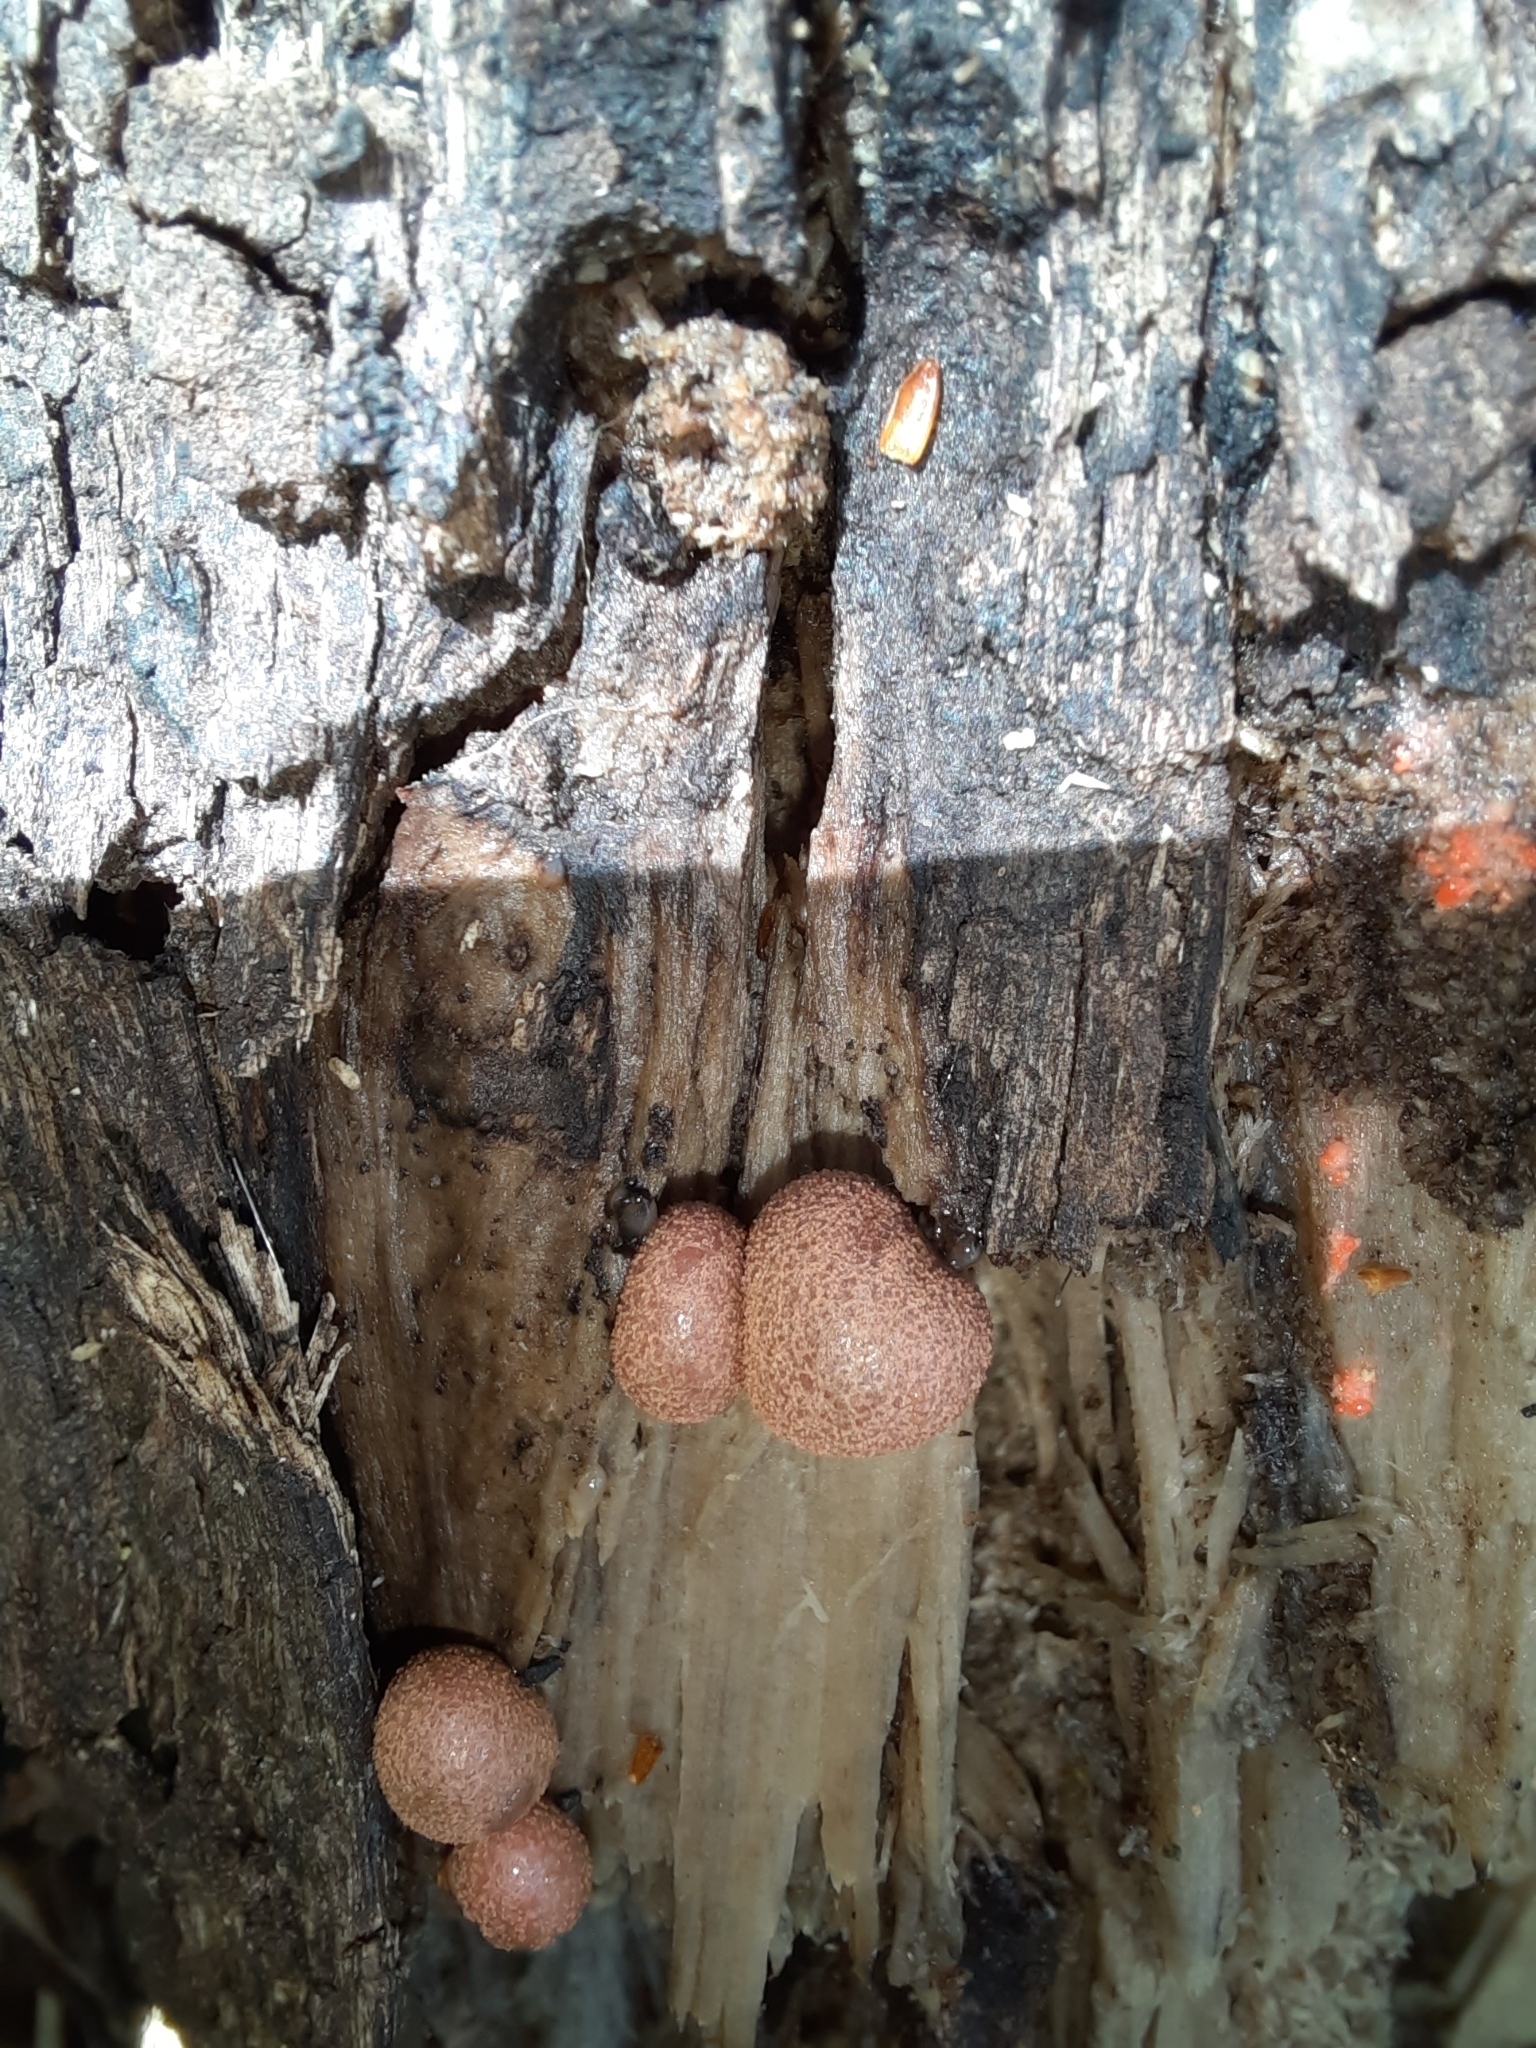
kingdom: Protozoa
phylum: Mycetozoa
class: Myxomycetes
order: Cribrariales
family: Tubiferaceae
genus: Lycogala
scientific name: Lycogala epidendrum
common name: Wolf's milk
